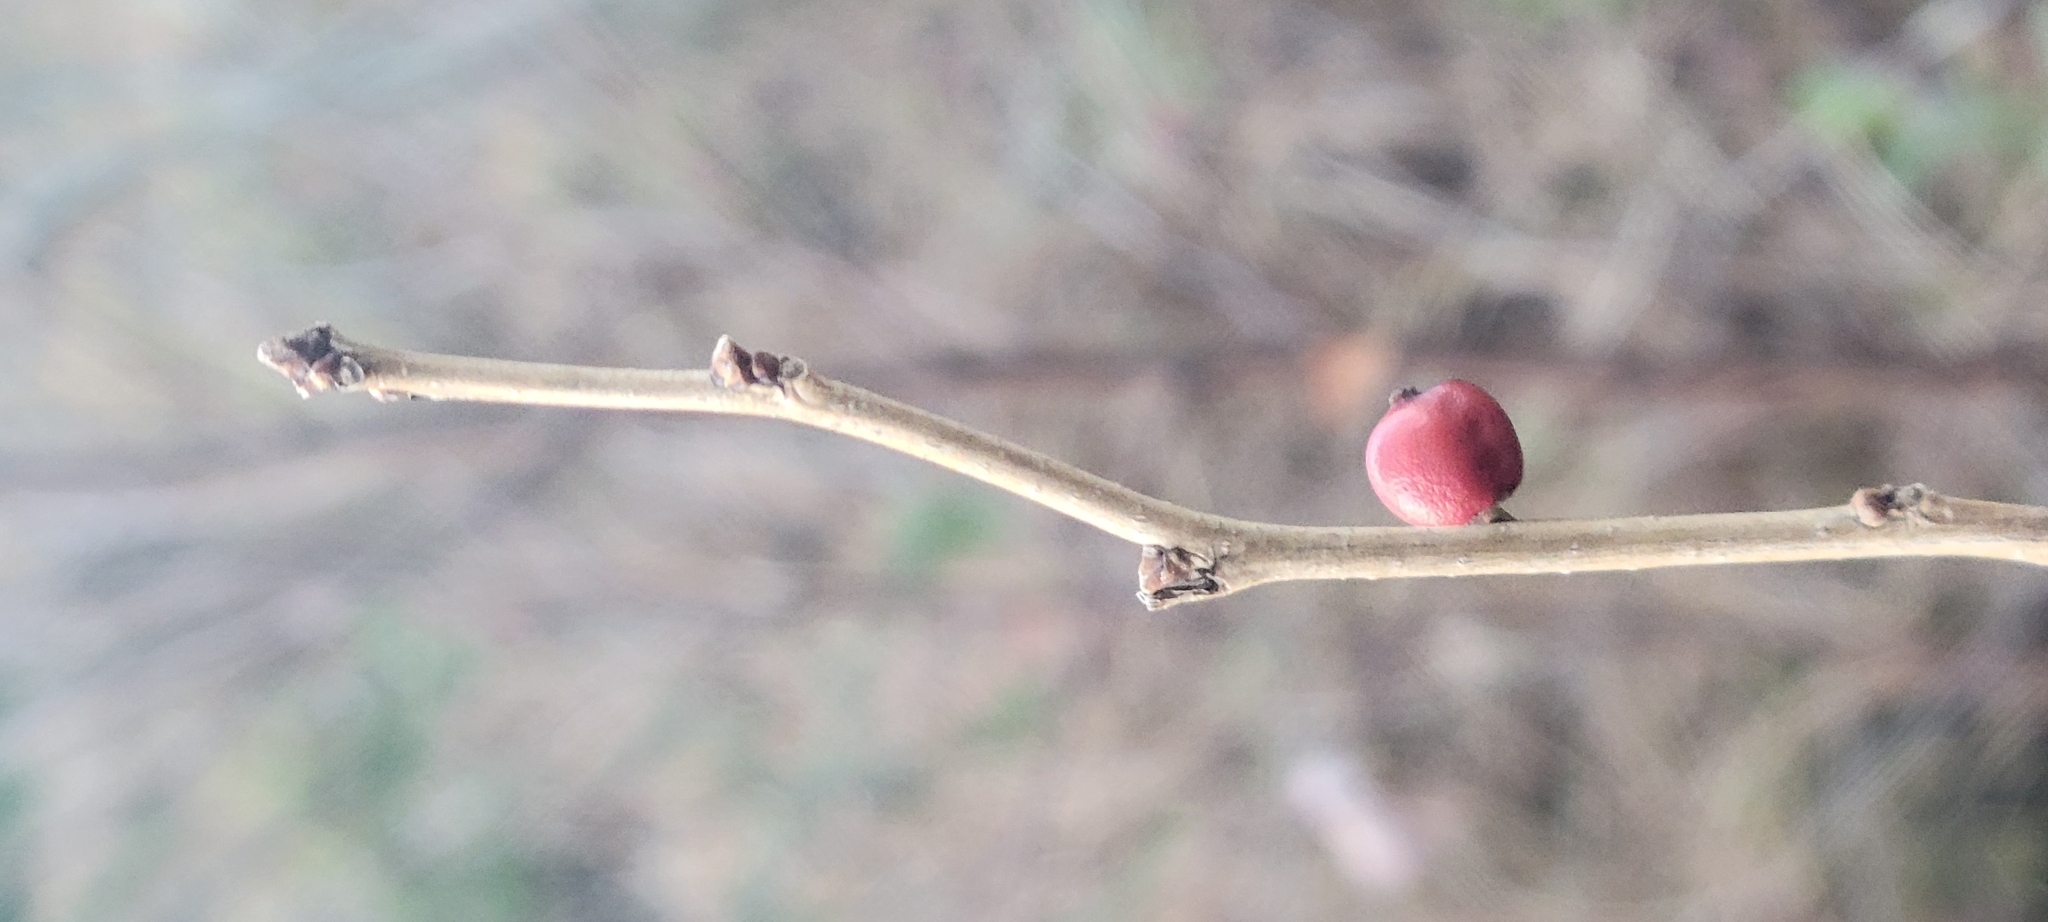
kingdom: Plantae
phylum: Tracheophyta
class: Magnoliopsida
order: Aquifoliales
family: Aquifoliaceae
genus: Ilex
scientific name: Ilex verticillata
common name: Virginia winterberry
